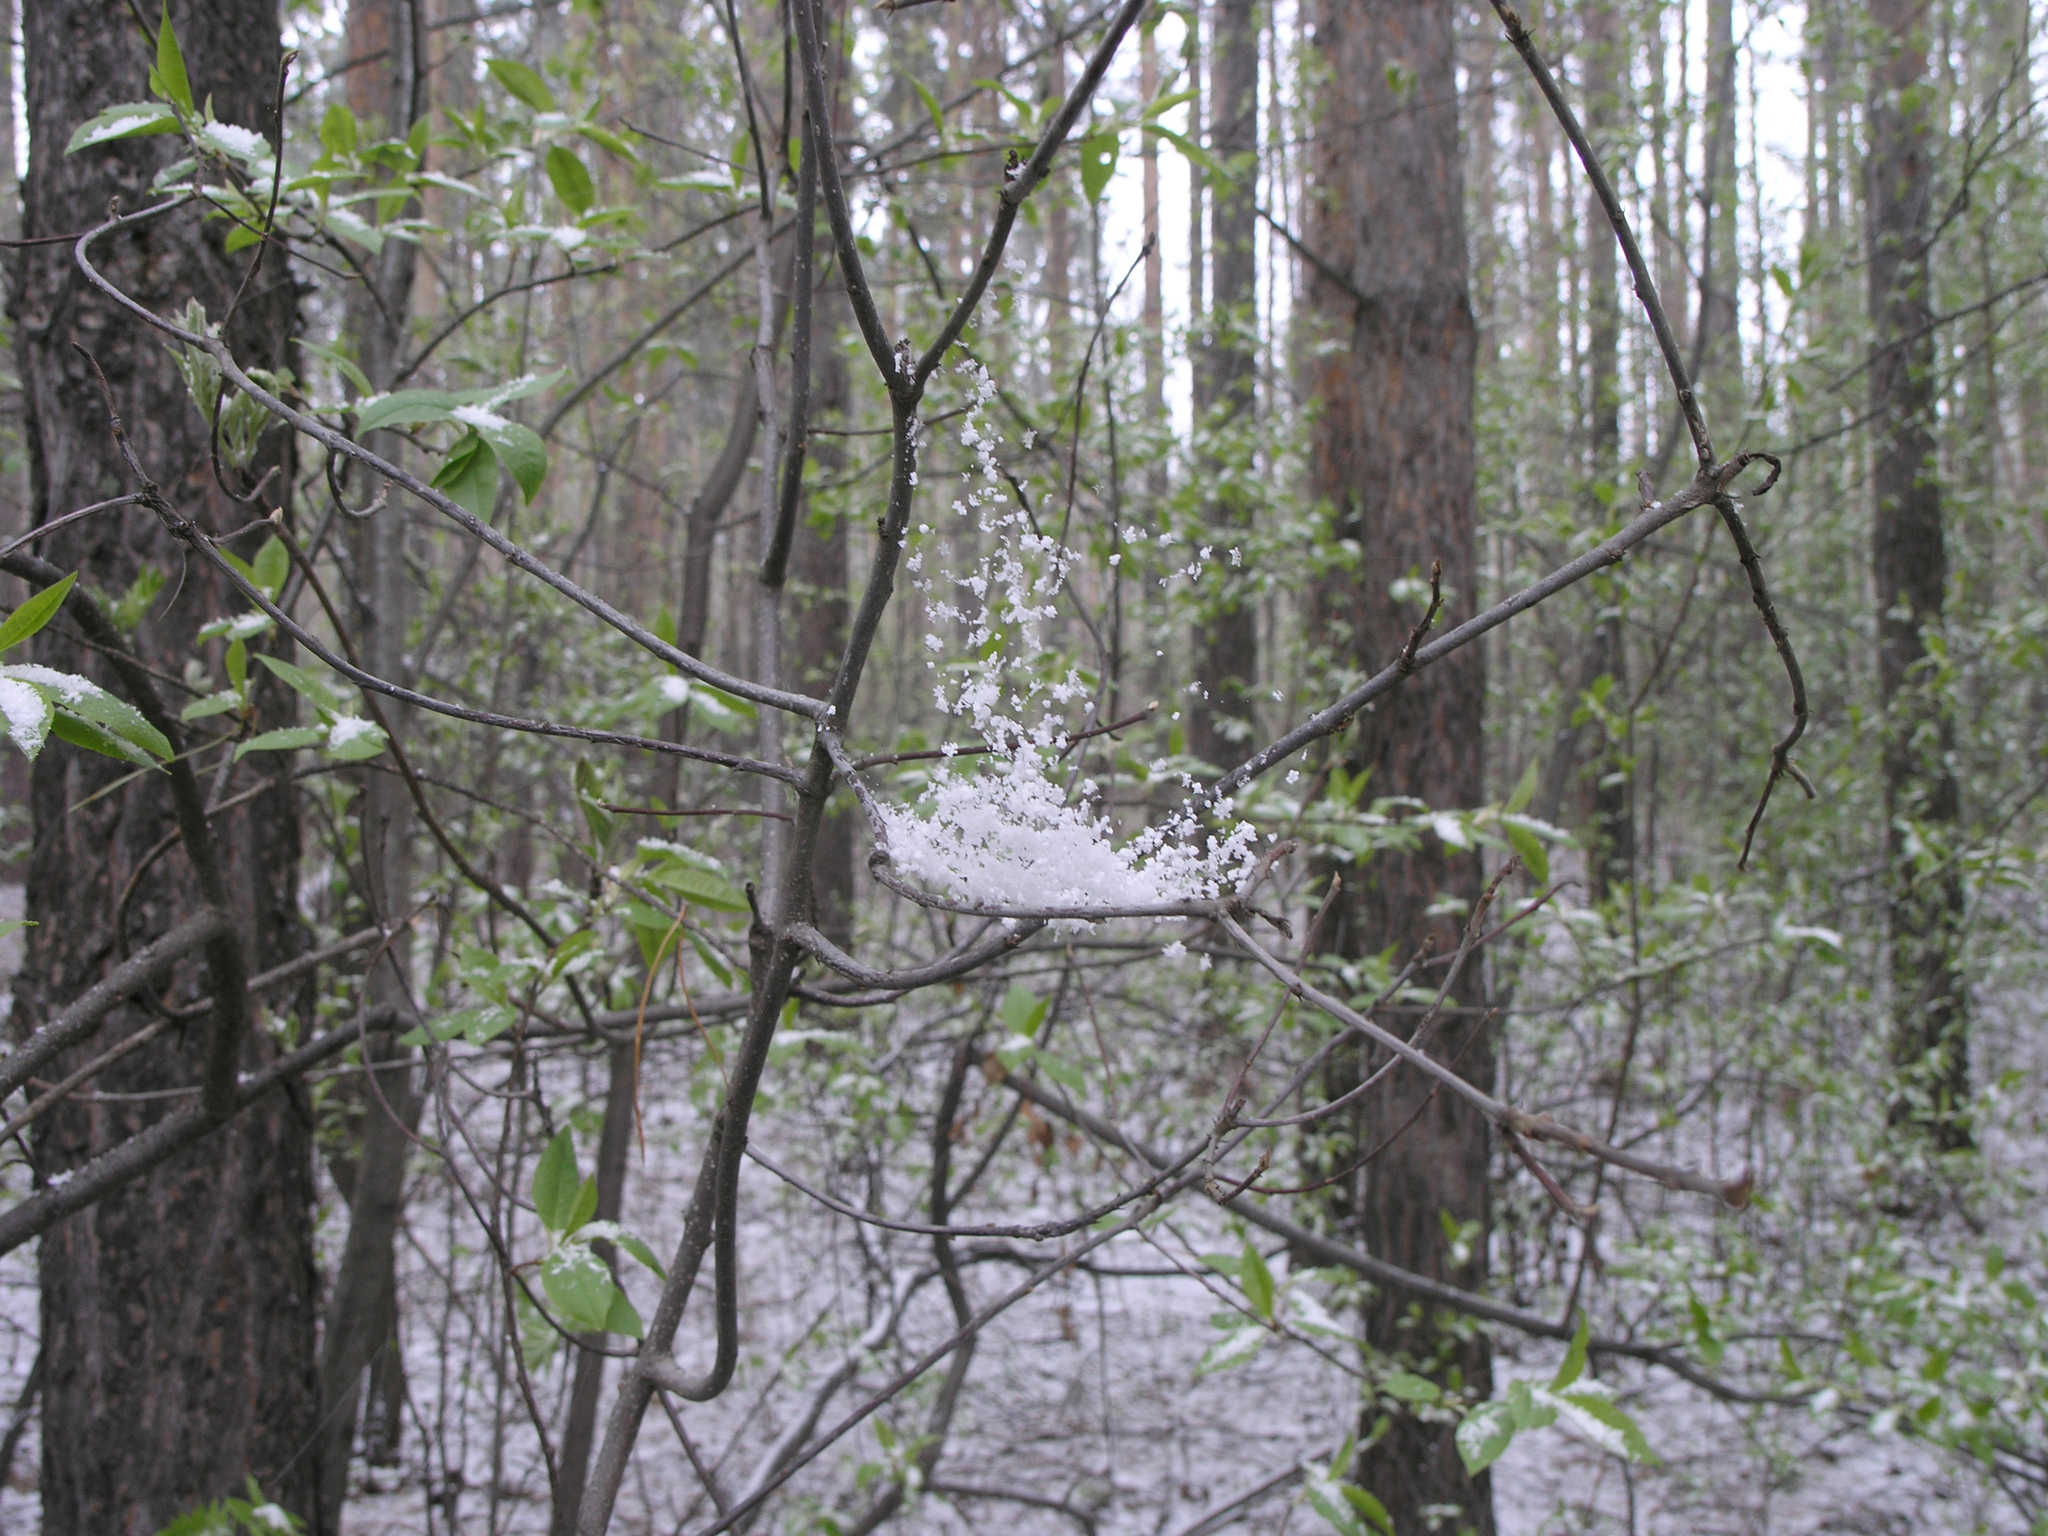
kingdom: Plantae
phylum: Tracheophyta
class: Magnoliopsida
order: Rosales
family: Rosaceae
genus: Prunus
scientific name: Prunus padus
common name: Bird cherry
